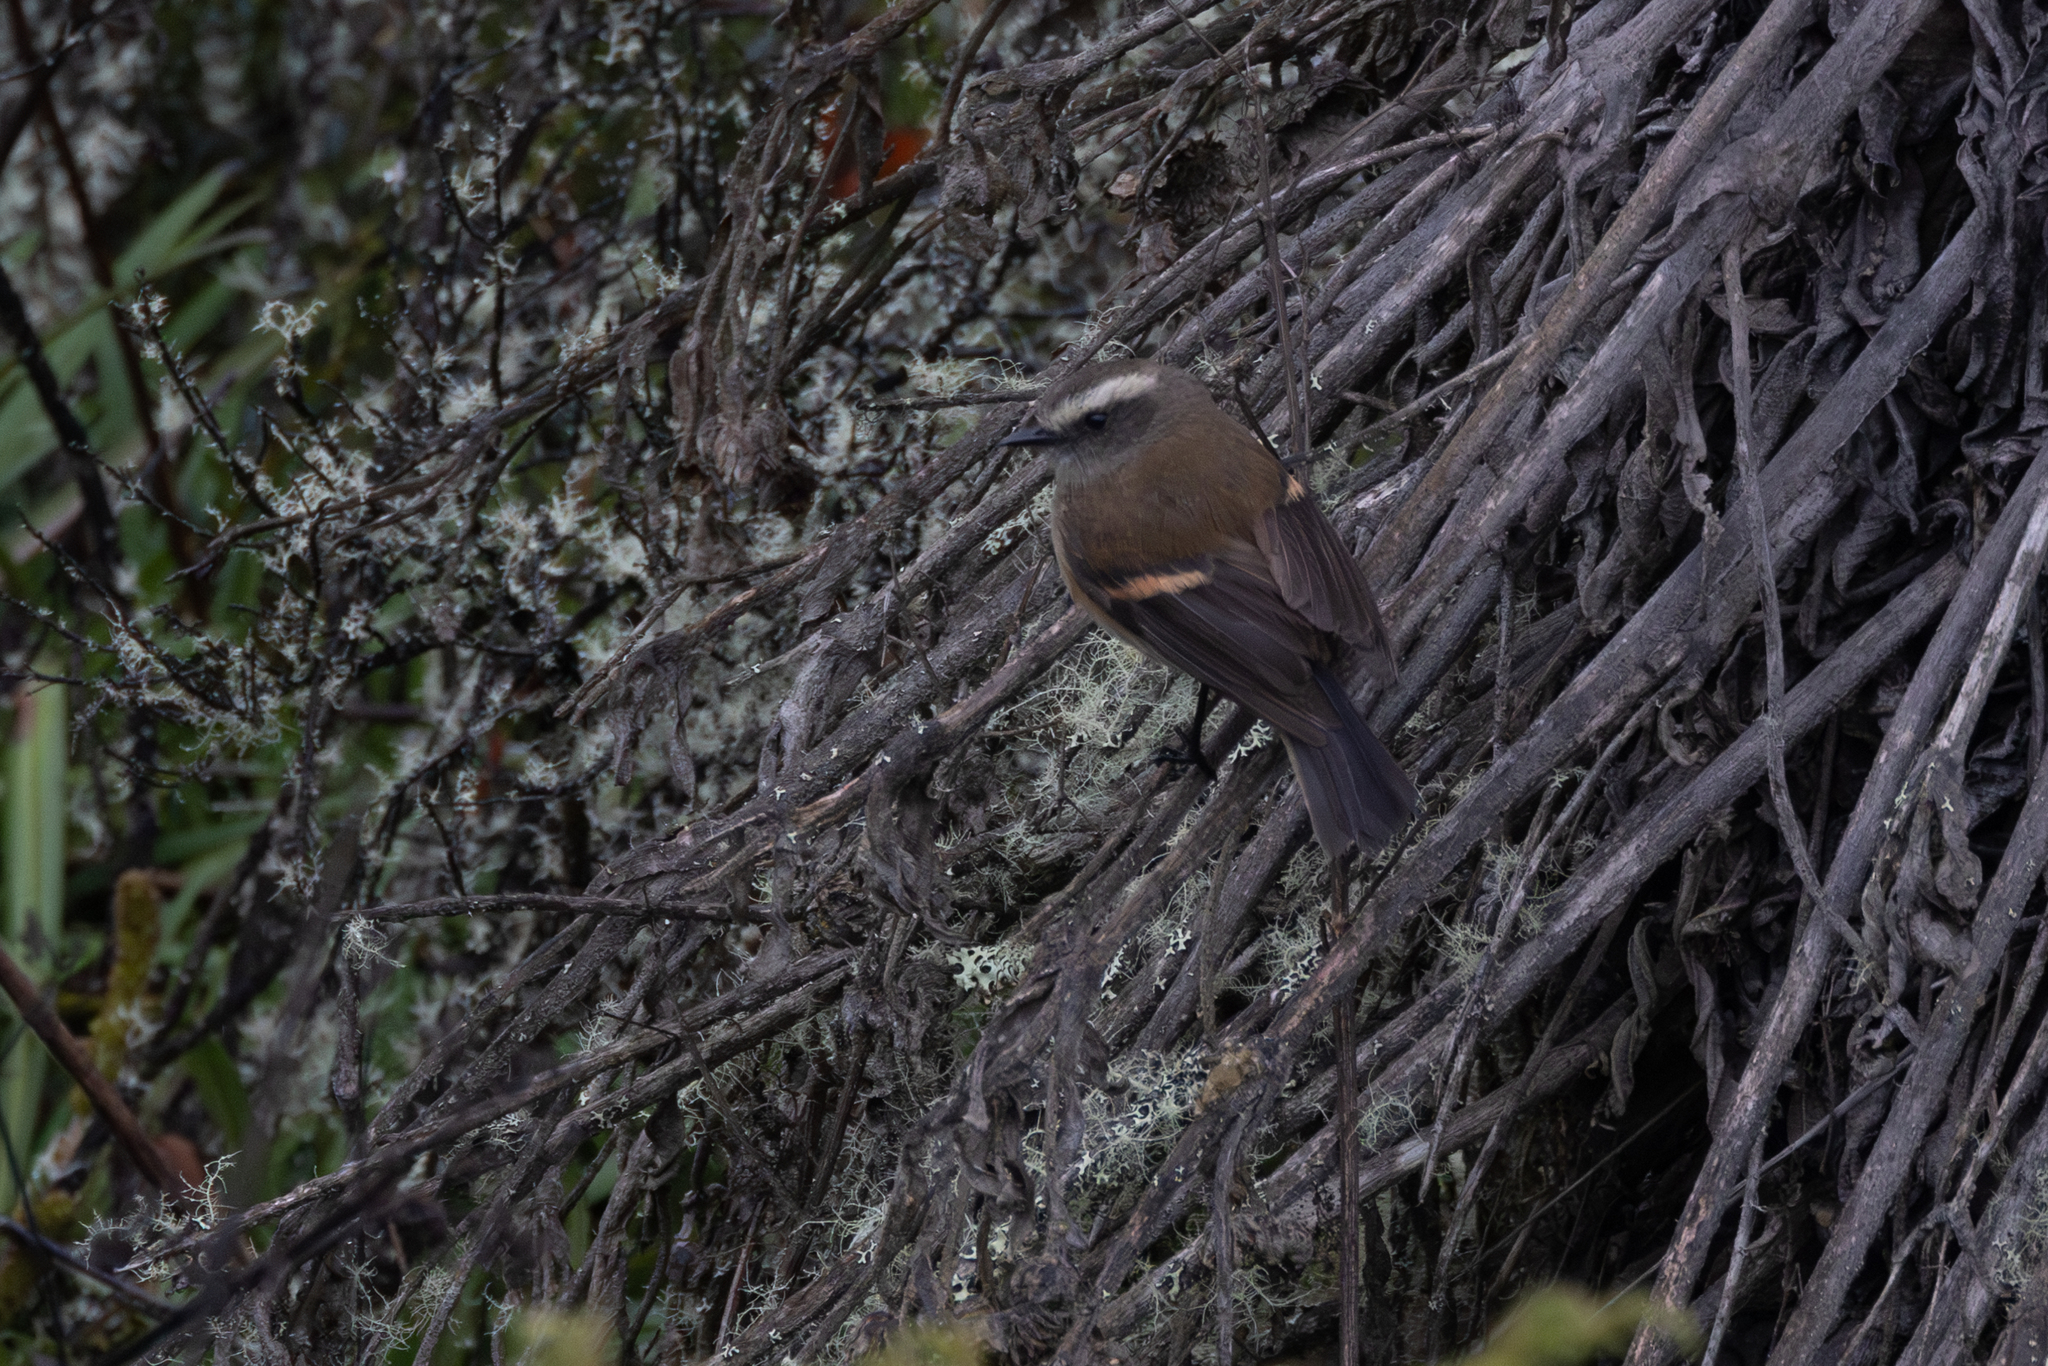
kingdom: Animalia
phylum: Chordata
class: Aves
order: Passeriformes
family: Tyrannidae
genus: Ochthoeca
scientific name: Ochthoeca fumicolor
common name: Brown-backed chat-tyrant
